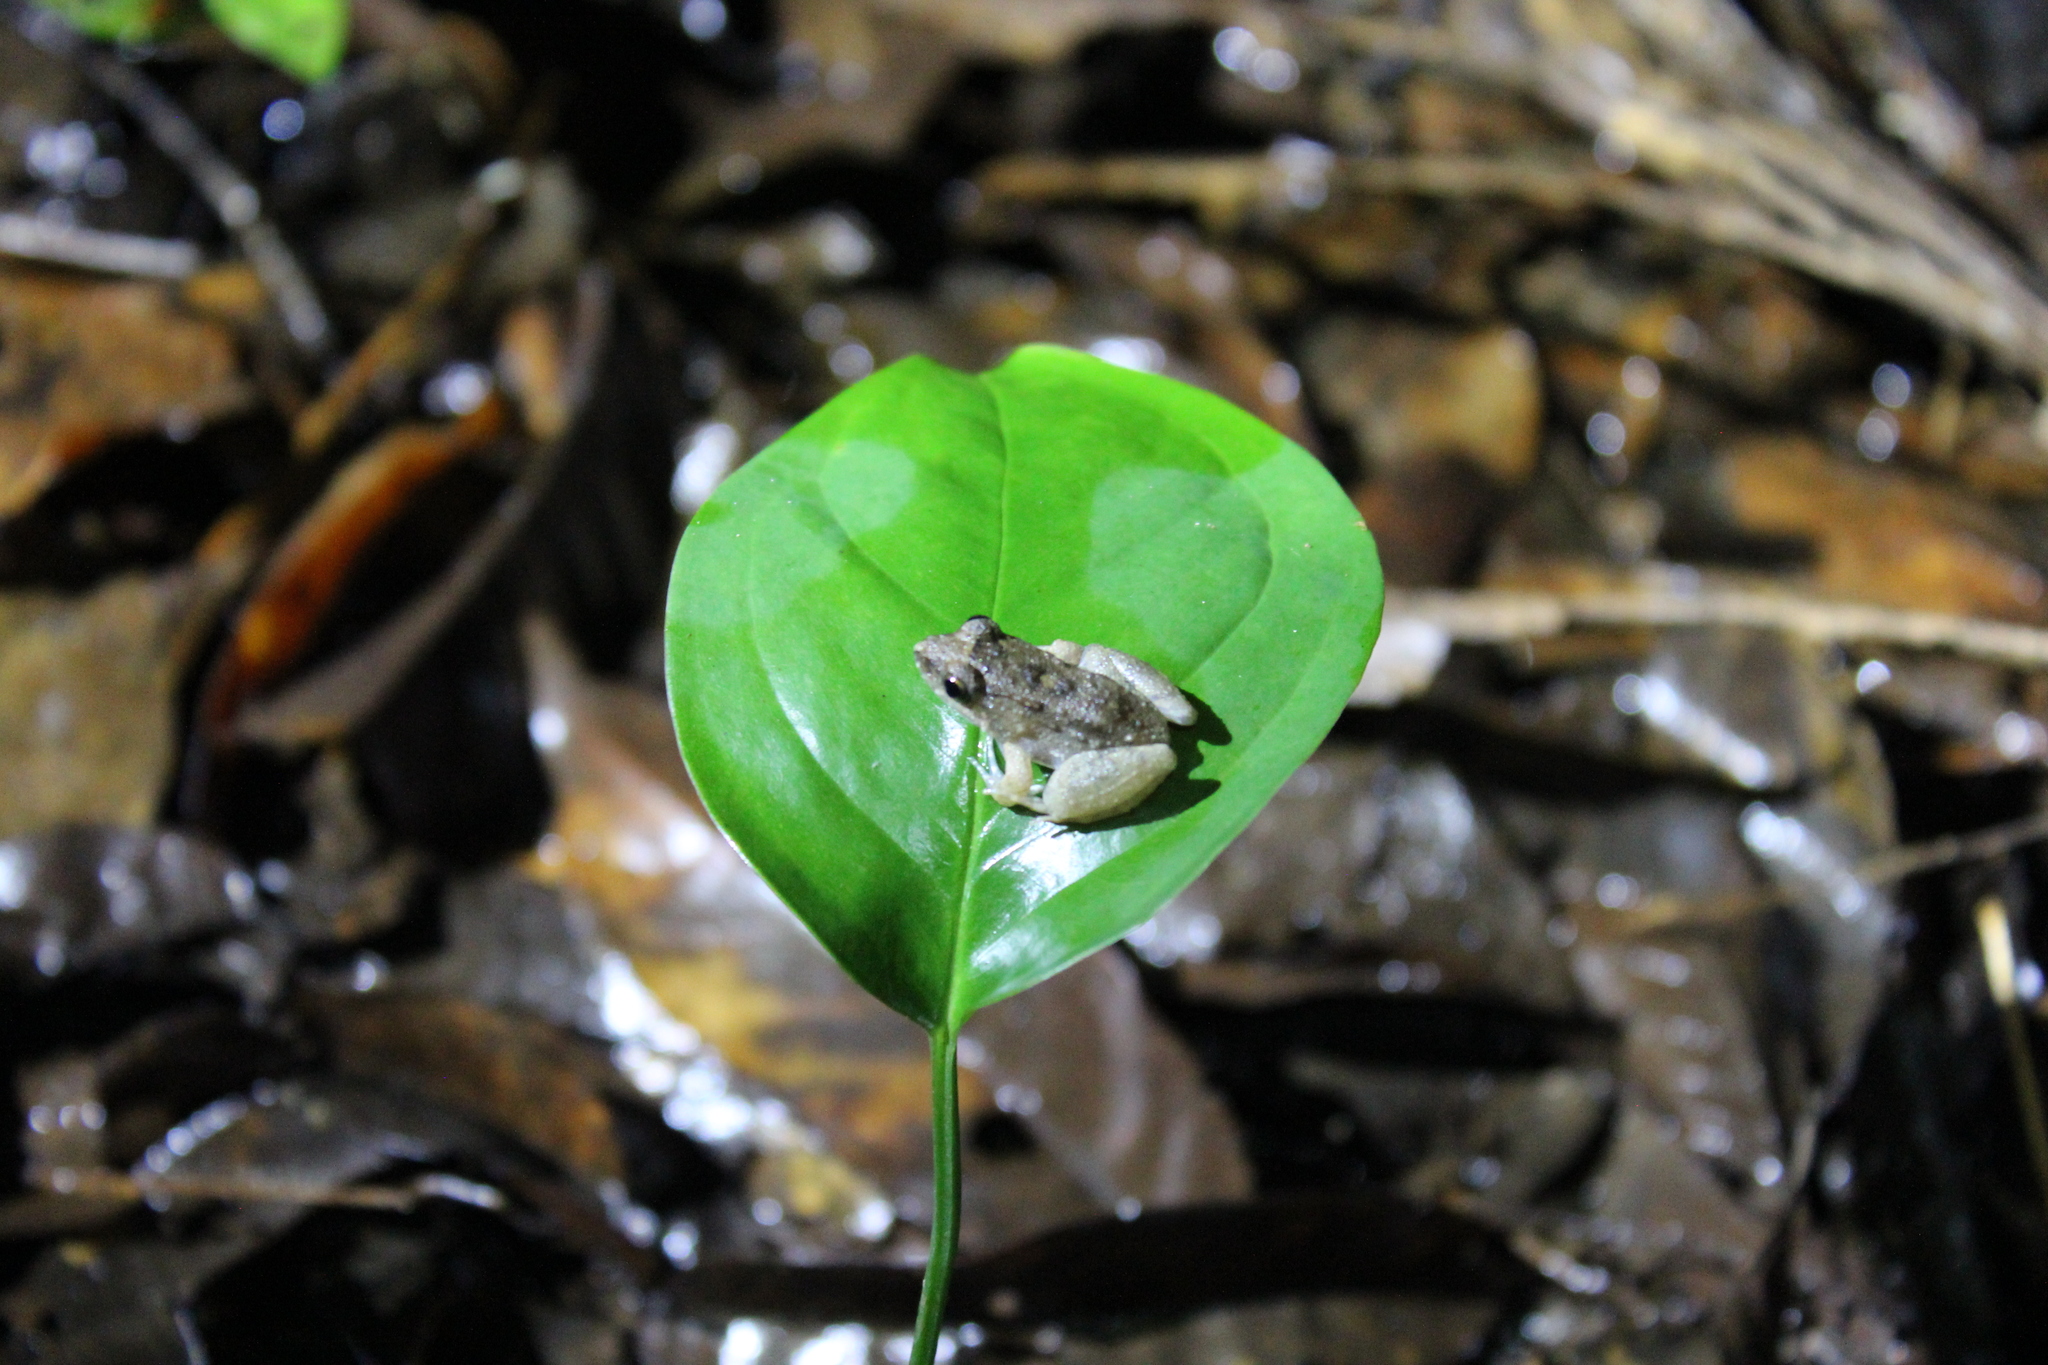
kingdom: Animalia
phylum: Chordata
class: Amphibia
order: Anura
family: Leptodactylidae
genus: Adenomera
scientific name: Adenomera chicomendesi
